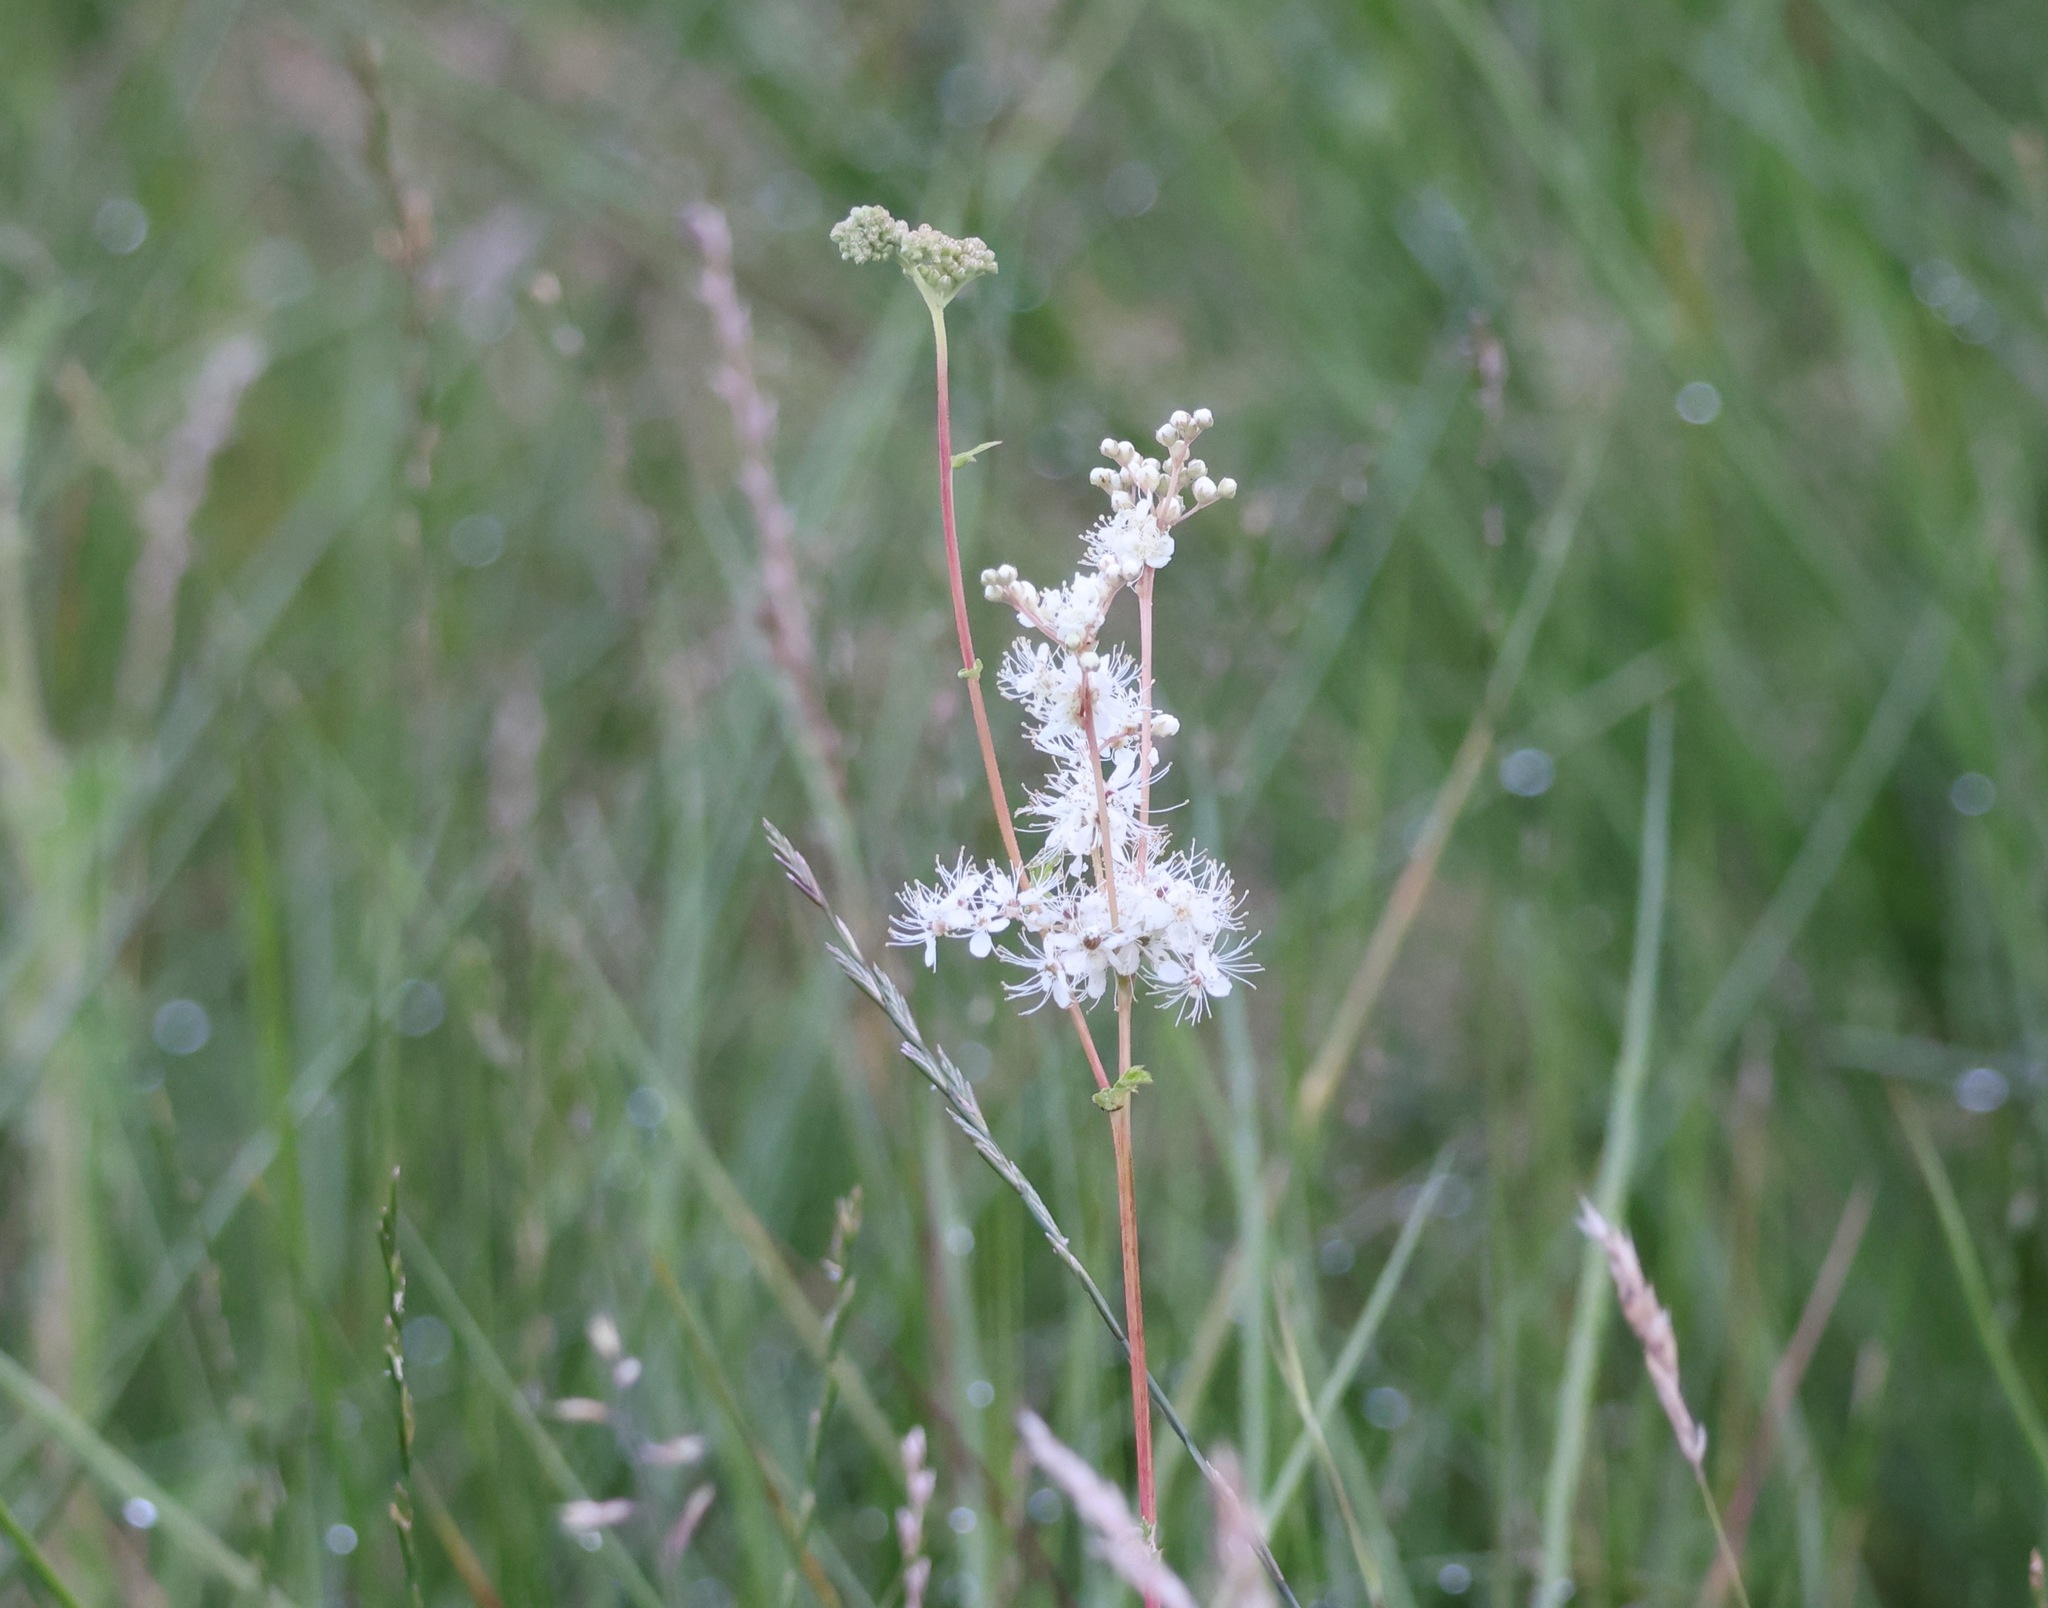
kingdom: Plantae
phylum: Tracheophyta
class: Magnoliopsida
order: Rosales
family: Rosaceae
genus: Filipendula
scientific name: Filipendula ulmaria
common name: Meadowsweet
